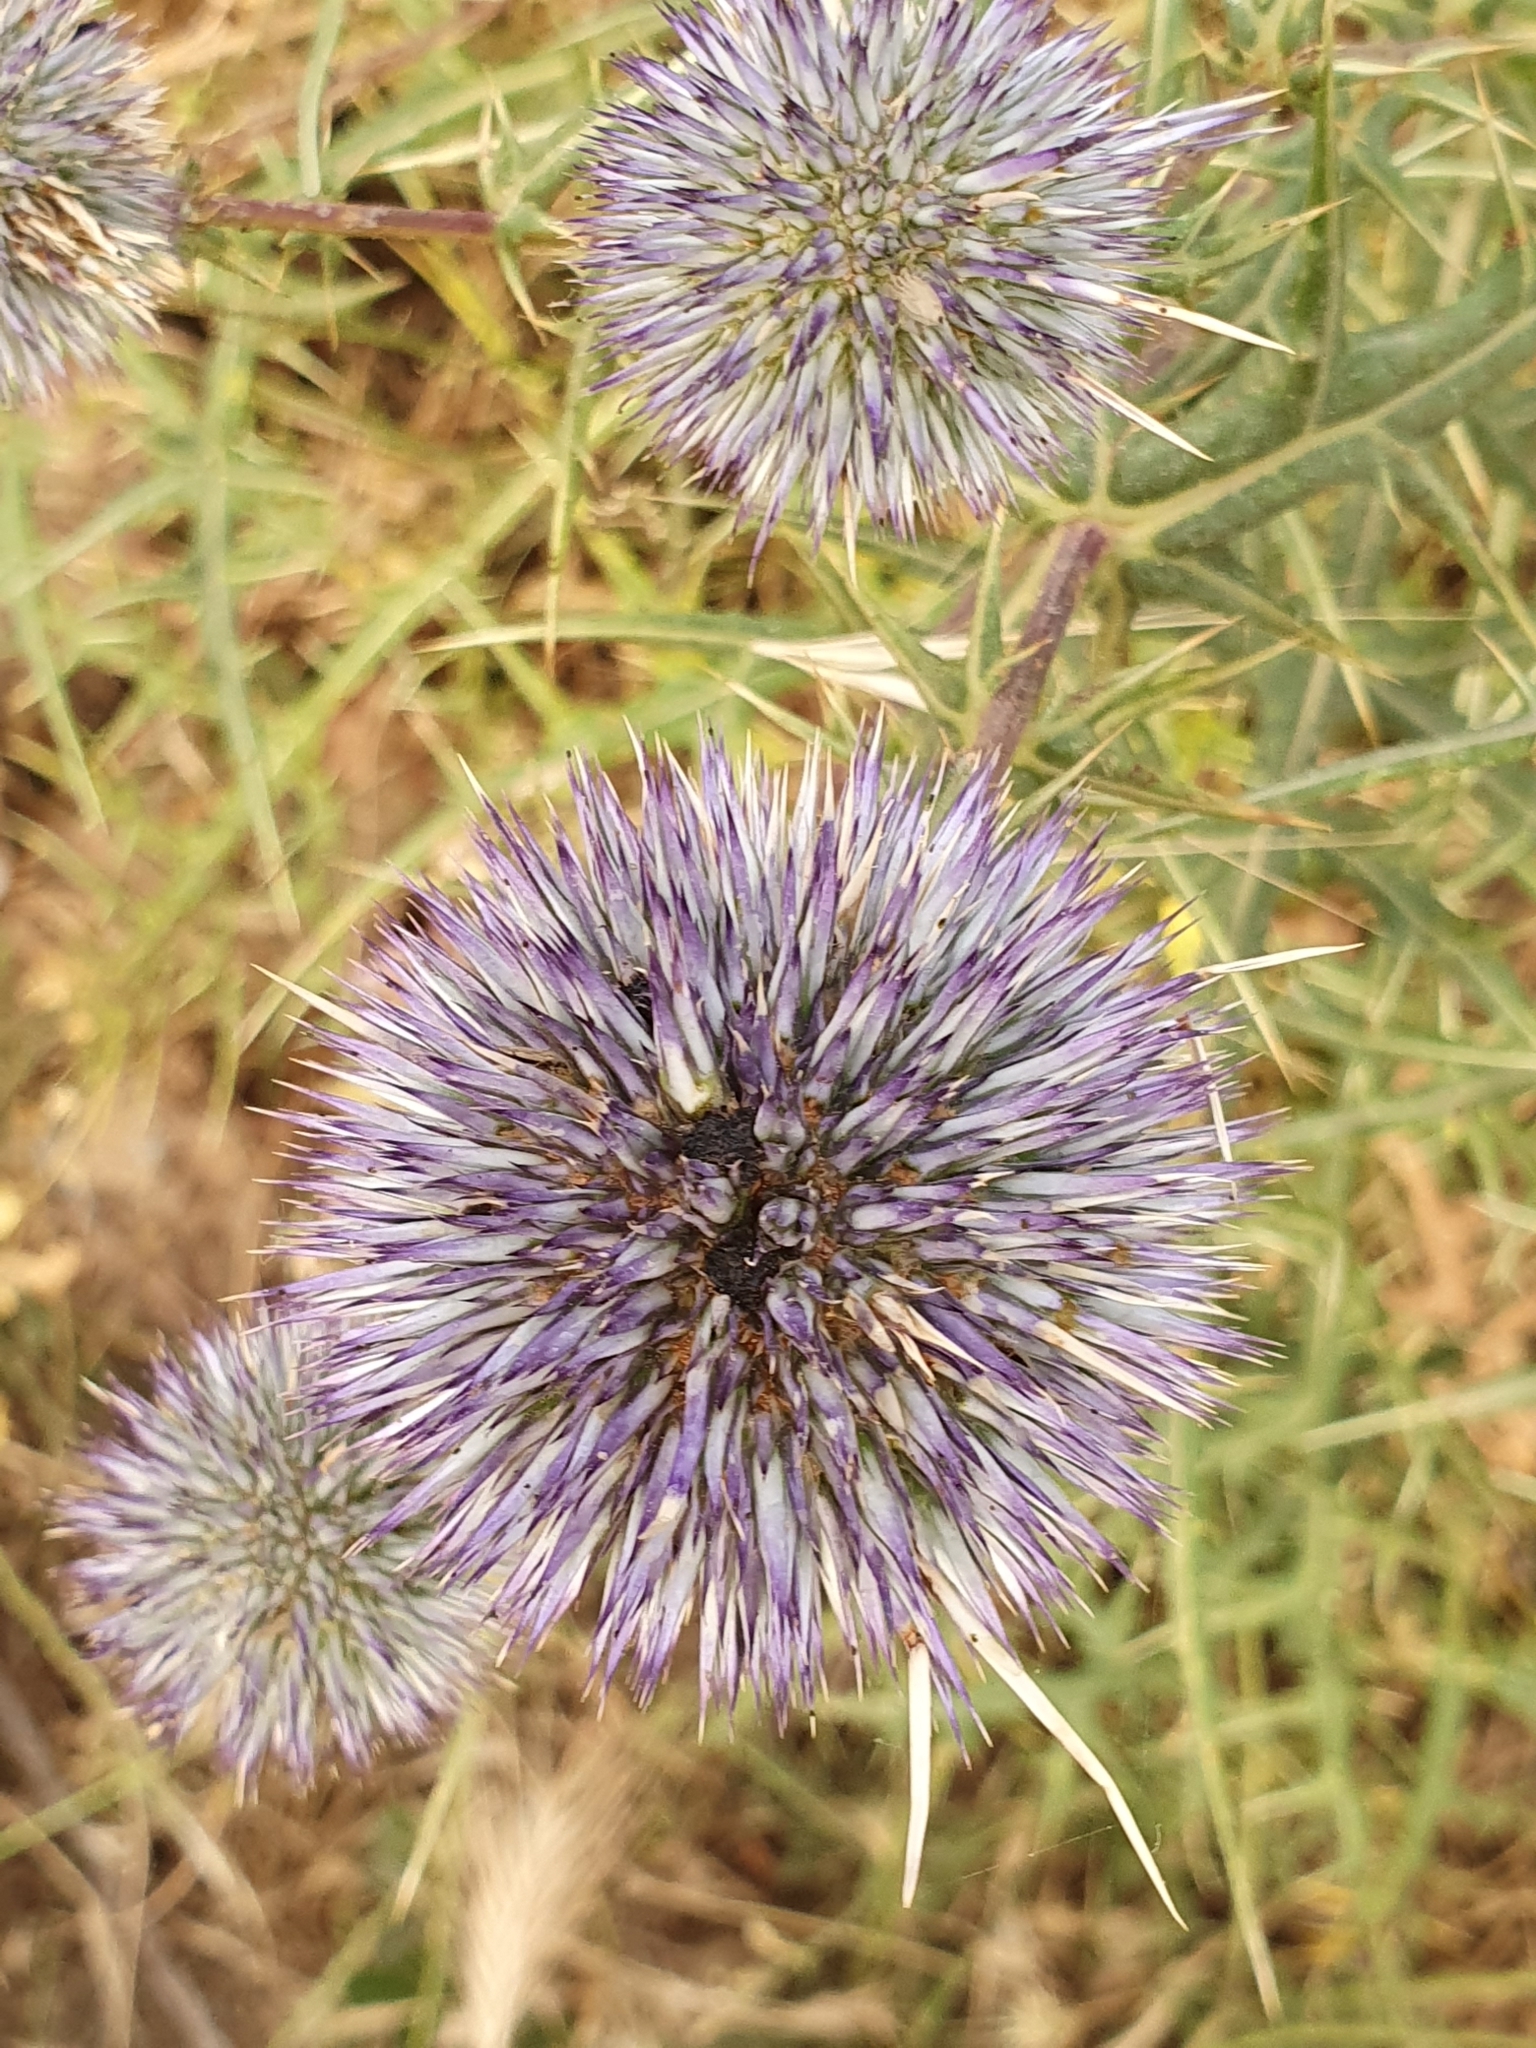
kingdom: Plantae
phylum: Tracheophyta
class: Magnoliopsida
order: Asterales
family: Asteraceae
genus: Echinops
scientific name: Echinops bovei
